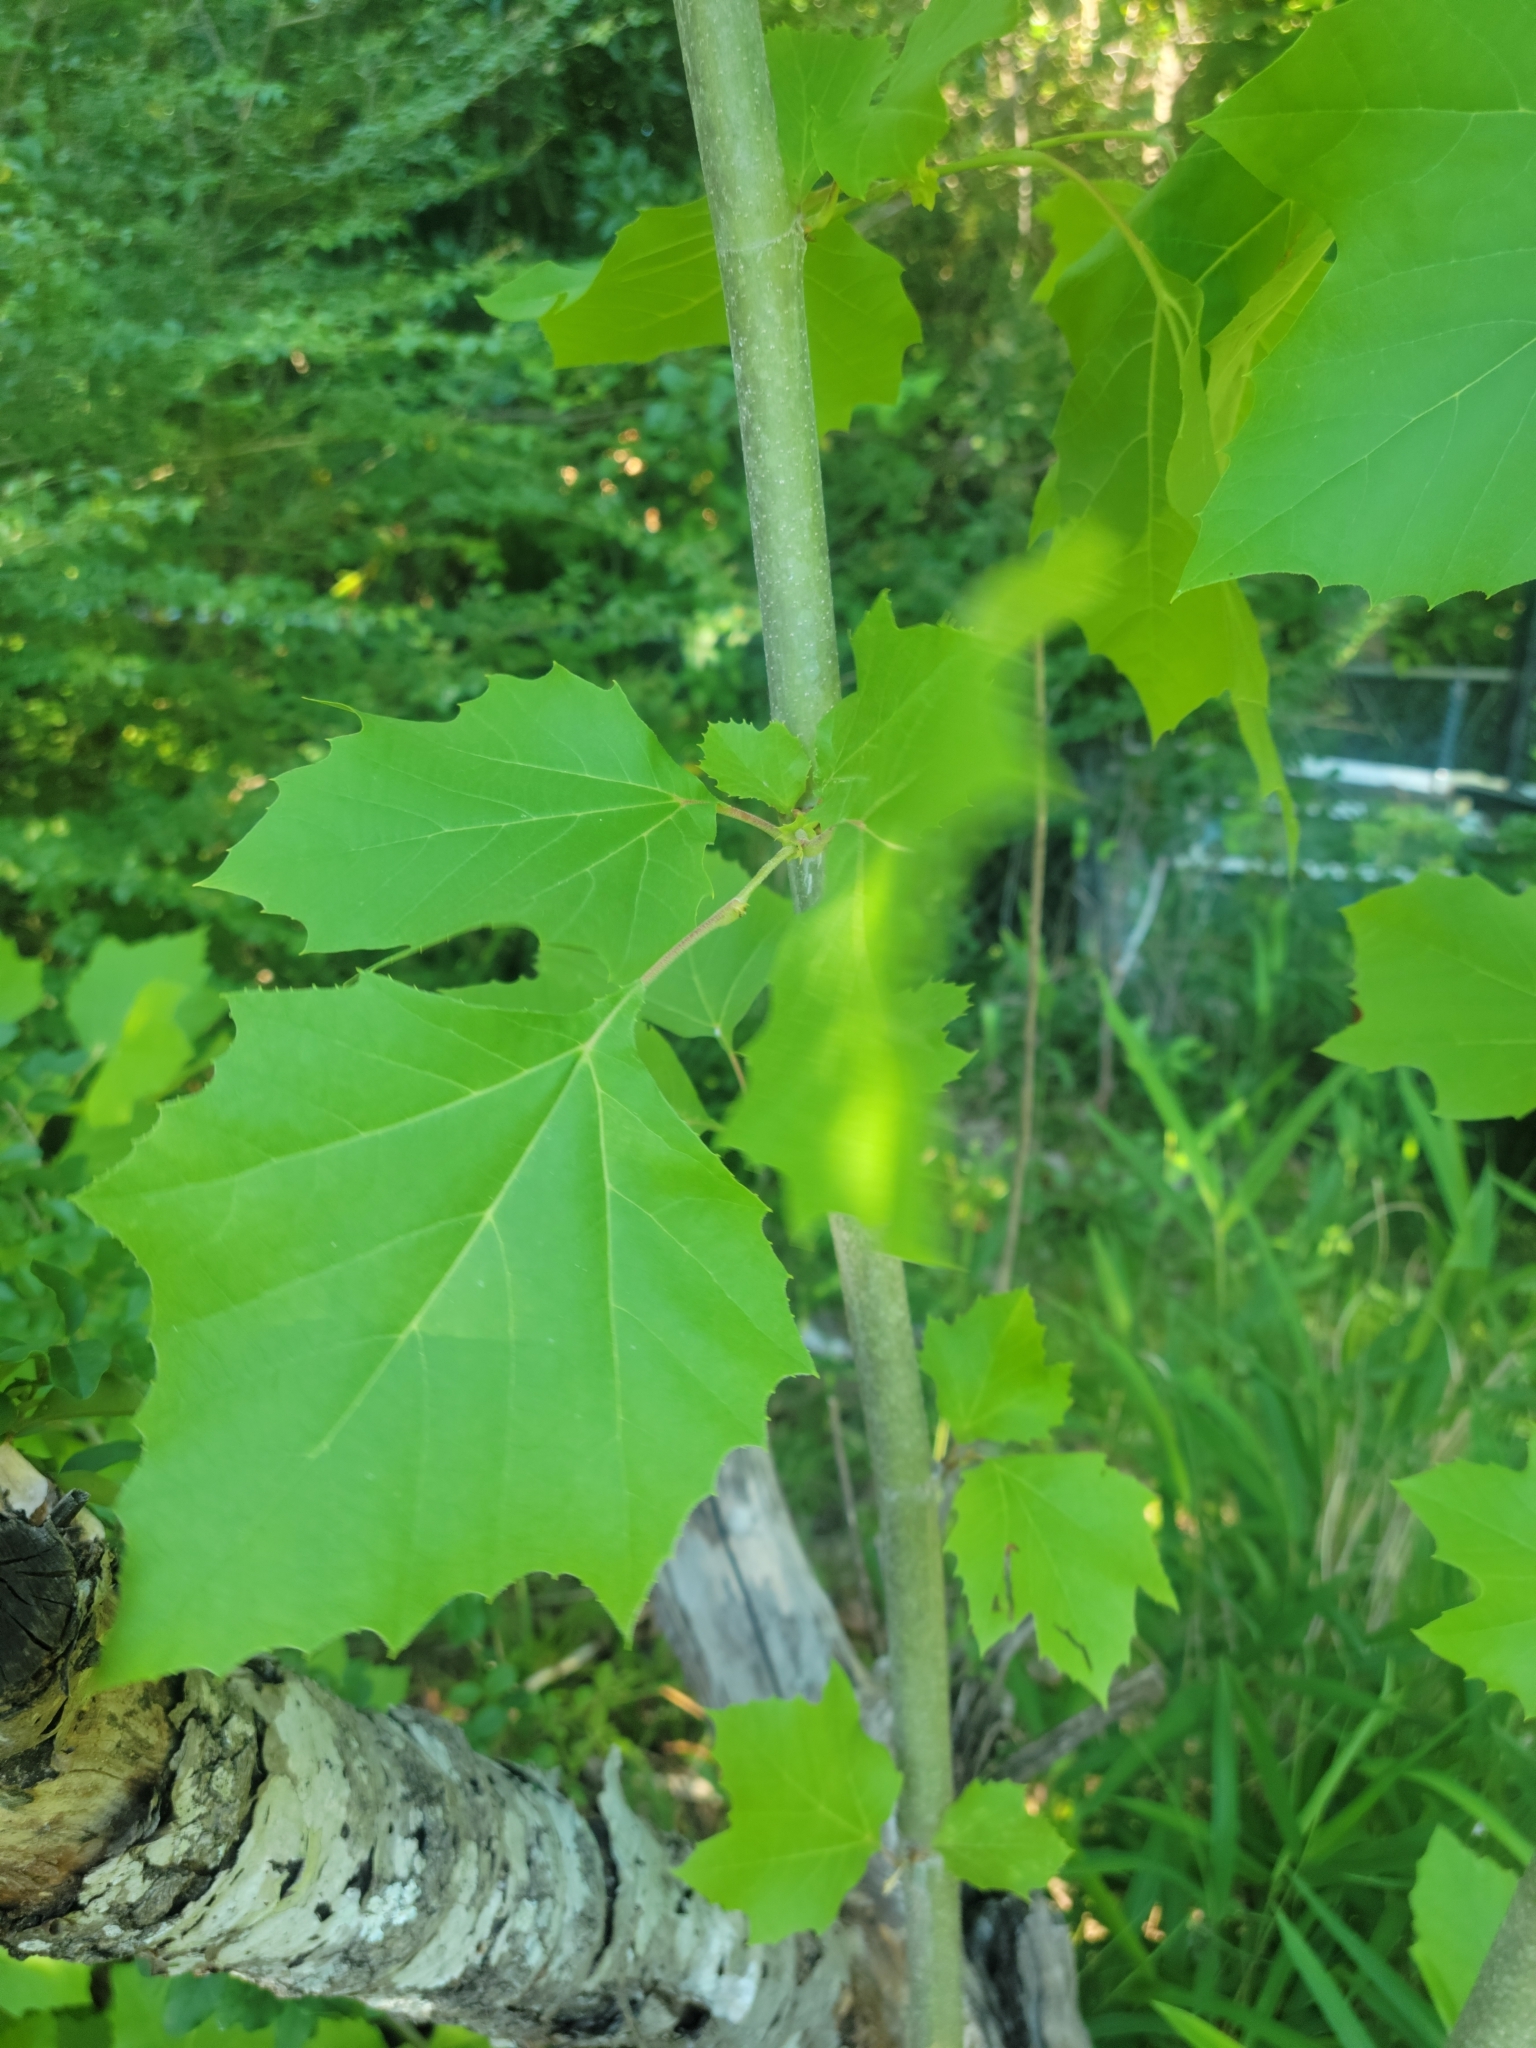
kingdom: Plantae
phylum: Tracheophyta
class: Magnoliopsida
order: Proteales
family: Platanaceae
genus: Platanus
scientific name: Platanus occidentalis
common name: American sycamore
